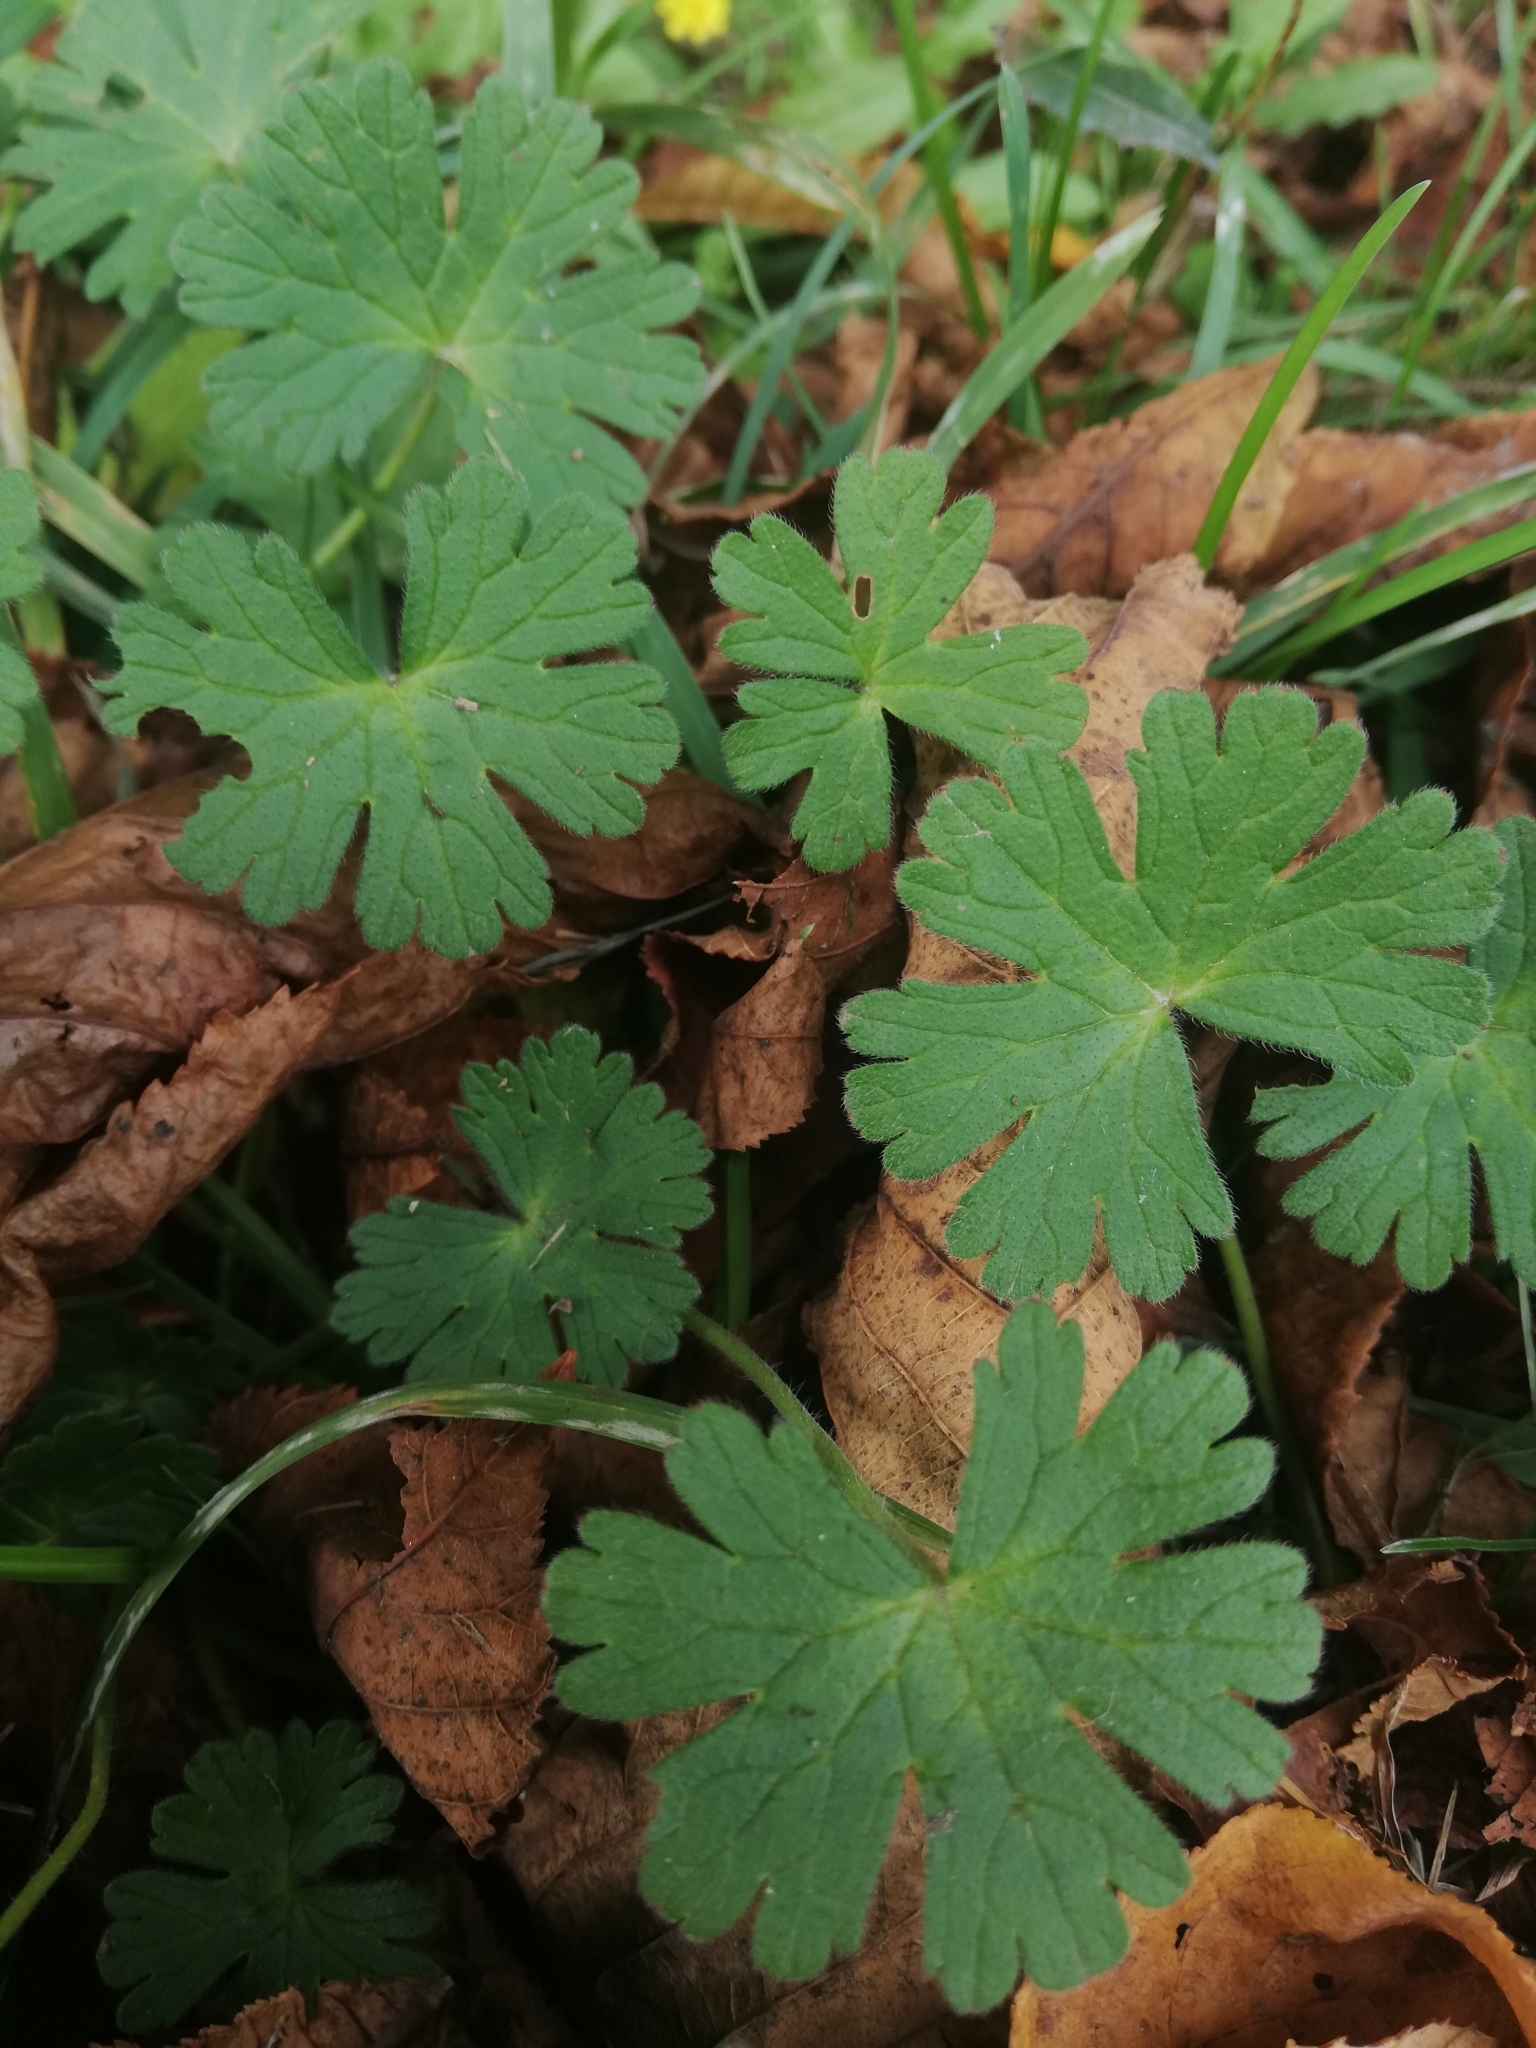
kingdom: Plantae
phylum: Tracheophyta
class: Magnoliopsida
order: Geraniales
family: Geraniaceae
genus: Geranium
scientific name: Geranium pyrenaicum
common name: Hedgerow crane's-bill
